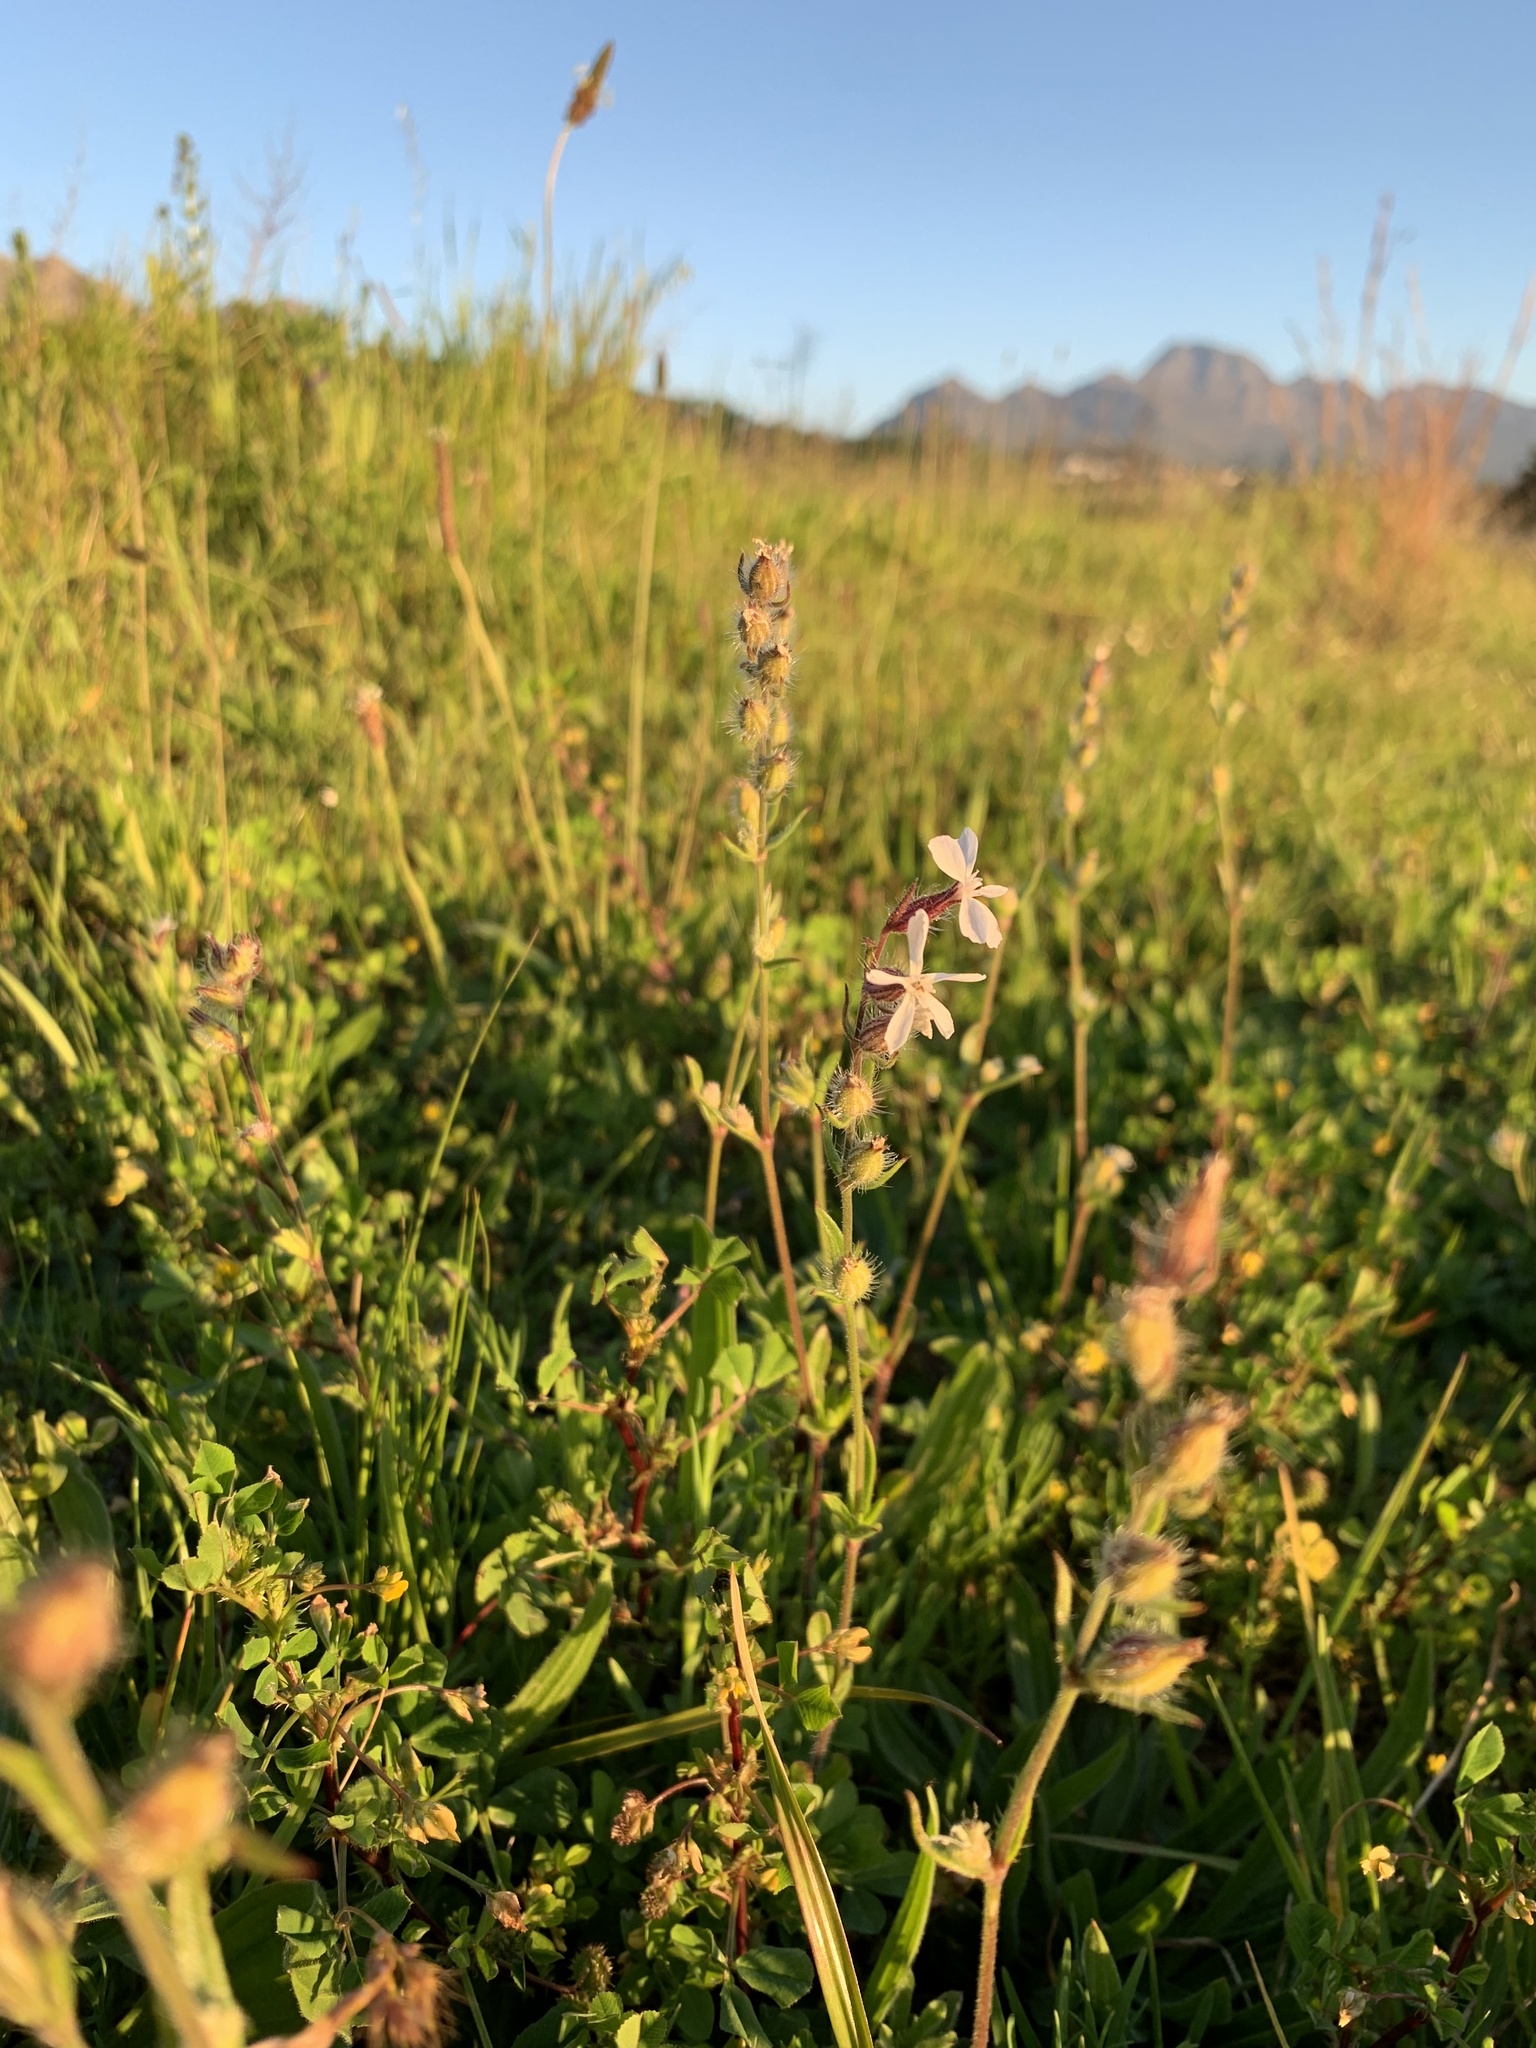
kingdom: Plantae
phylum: Tracheophyta
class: Magnoliopsida
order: Caryophyllales
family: Caryophyllaceae
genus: Silene
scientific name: Silene gallica
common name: Small-flowered catchfly
